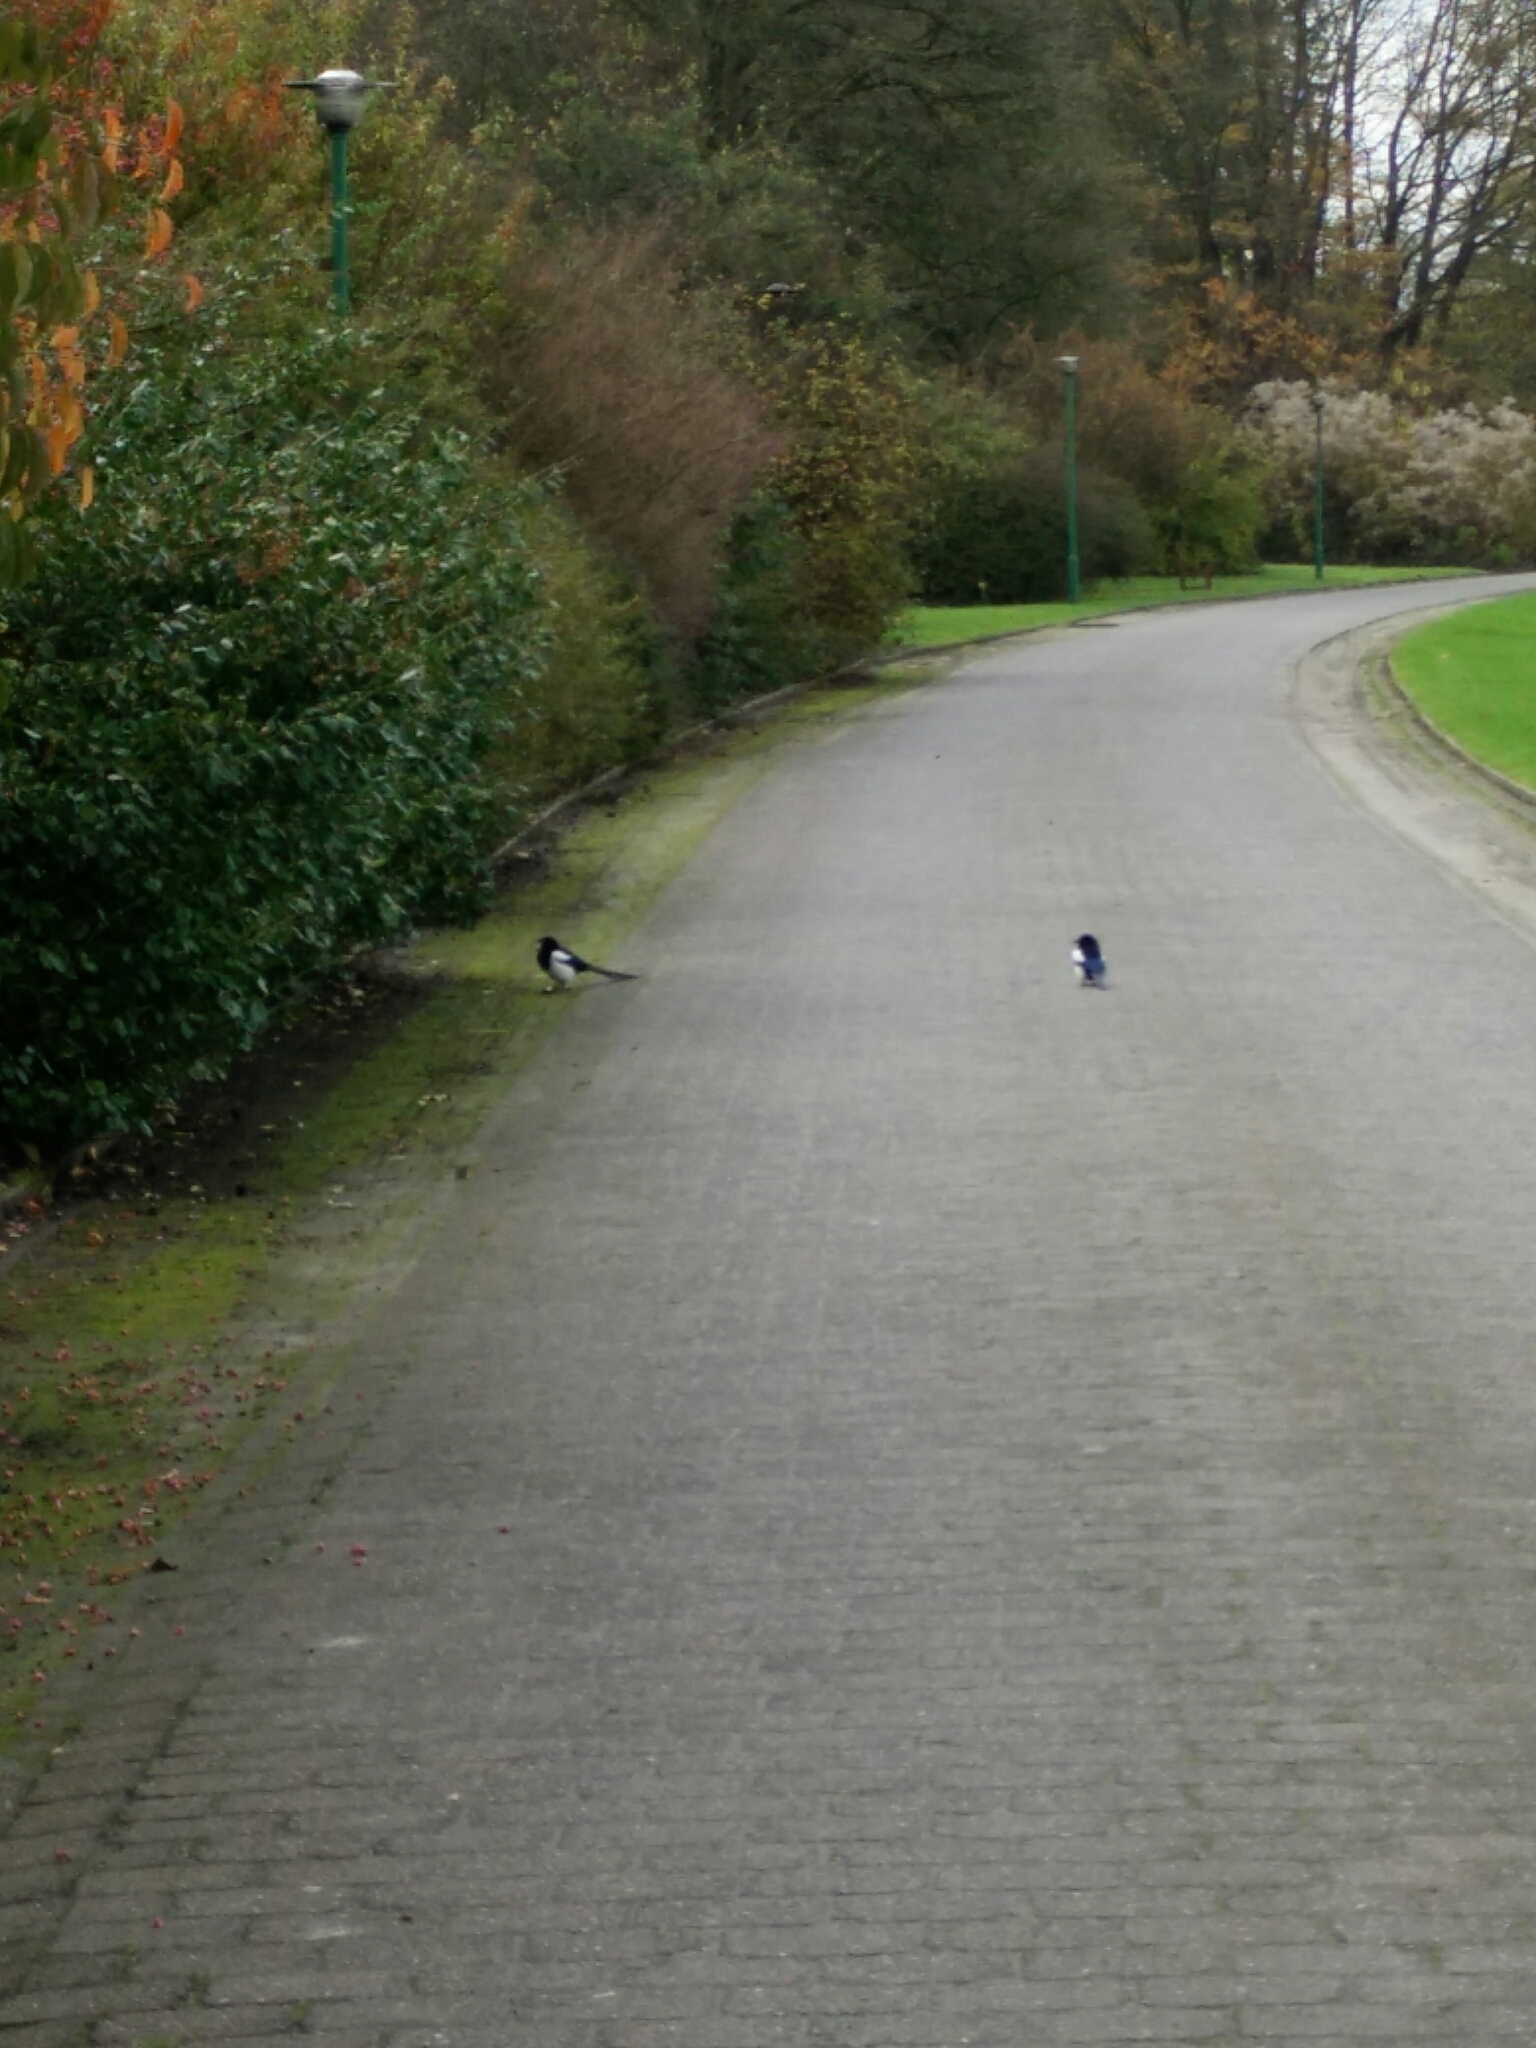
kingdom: Animalia
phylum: Chordata
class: Aves
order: Passeriformes
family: Corvidae
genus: Pica
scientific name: Pica pica
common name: Eurasian magpie
